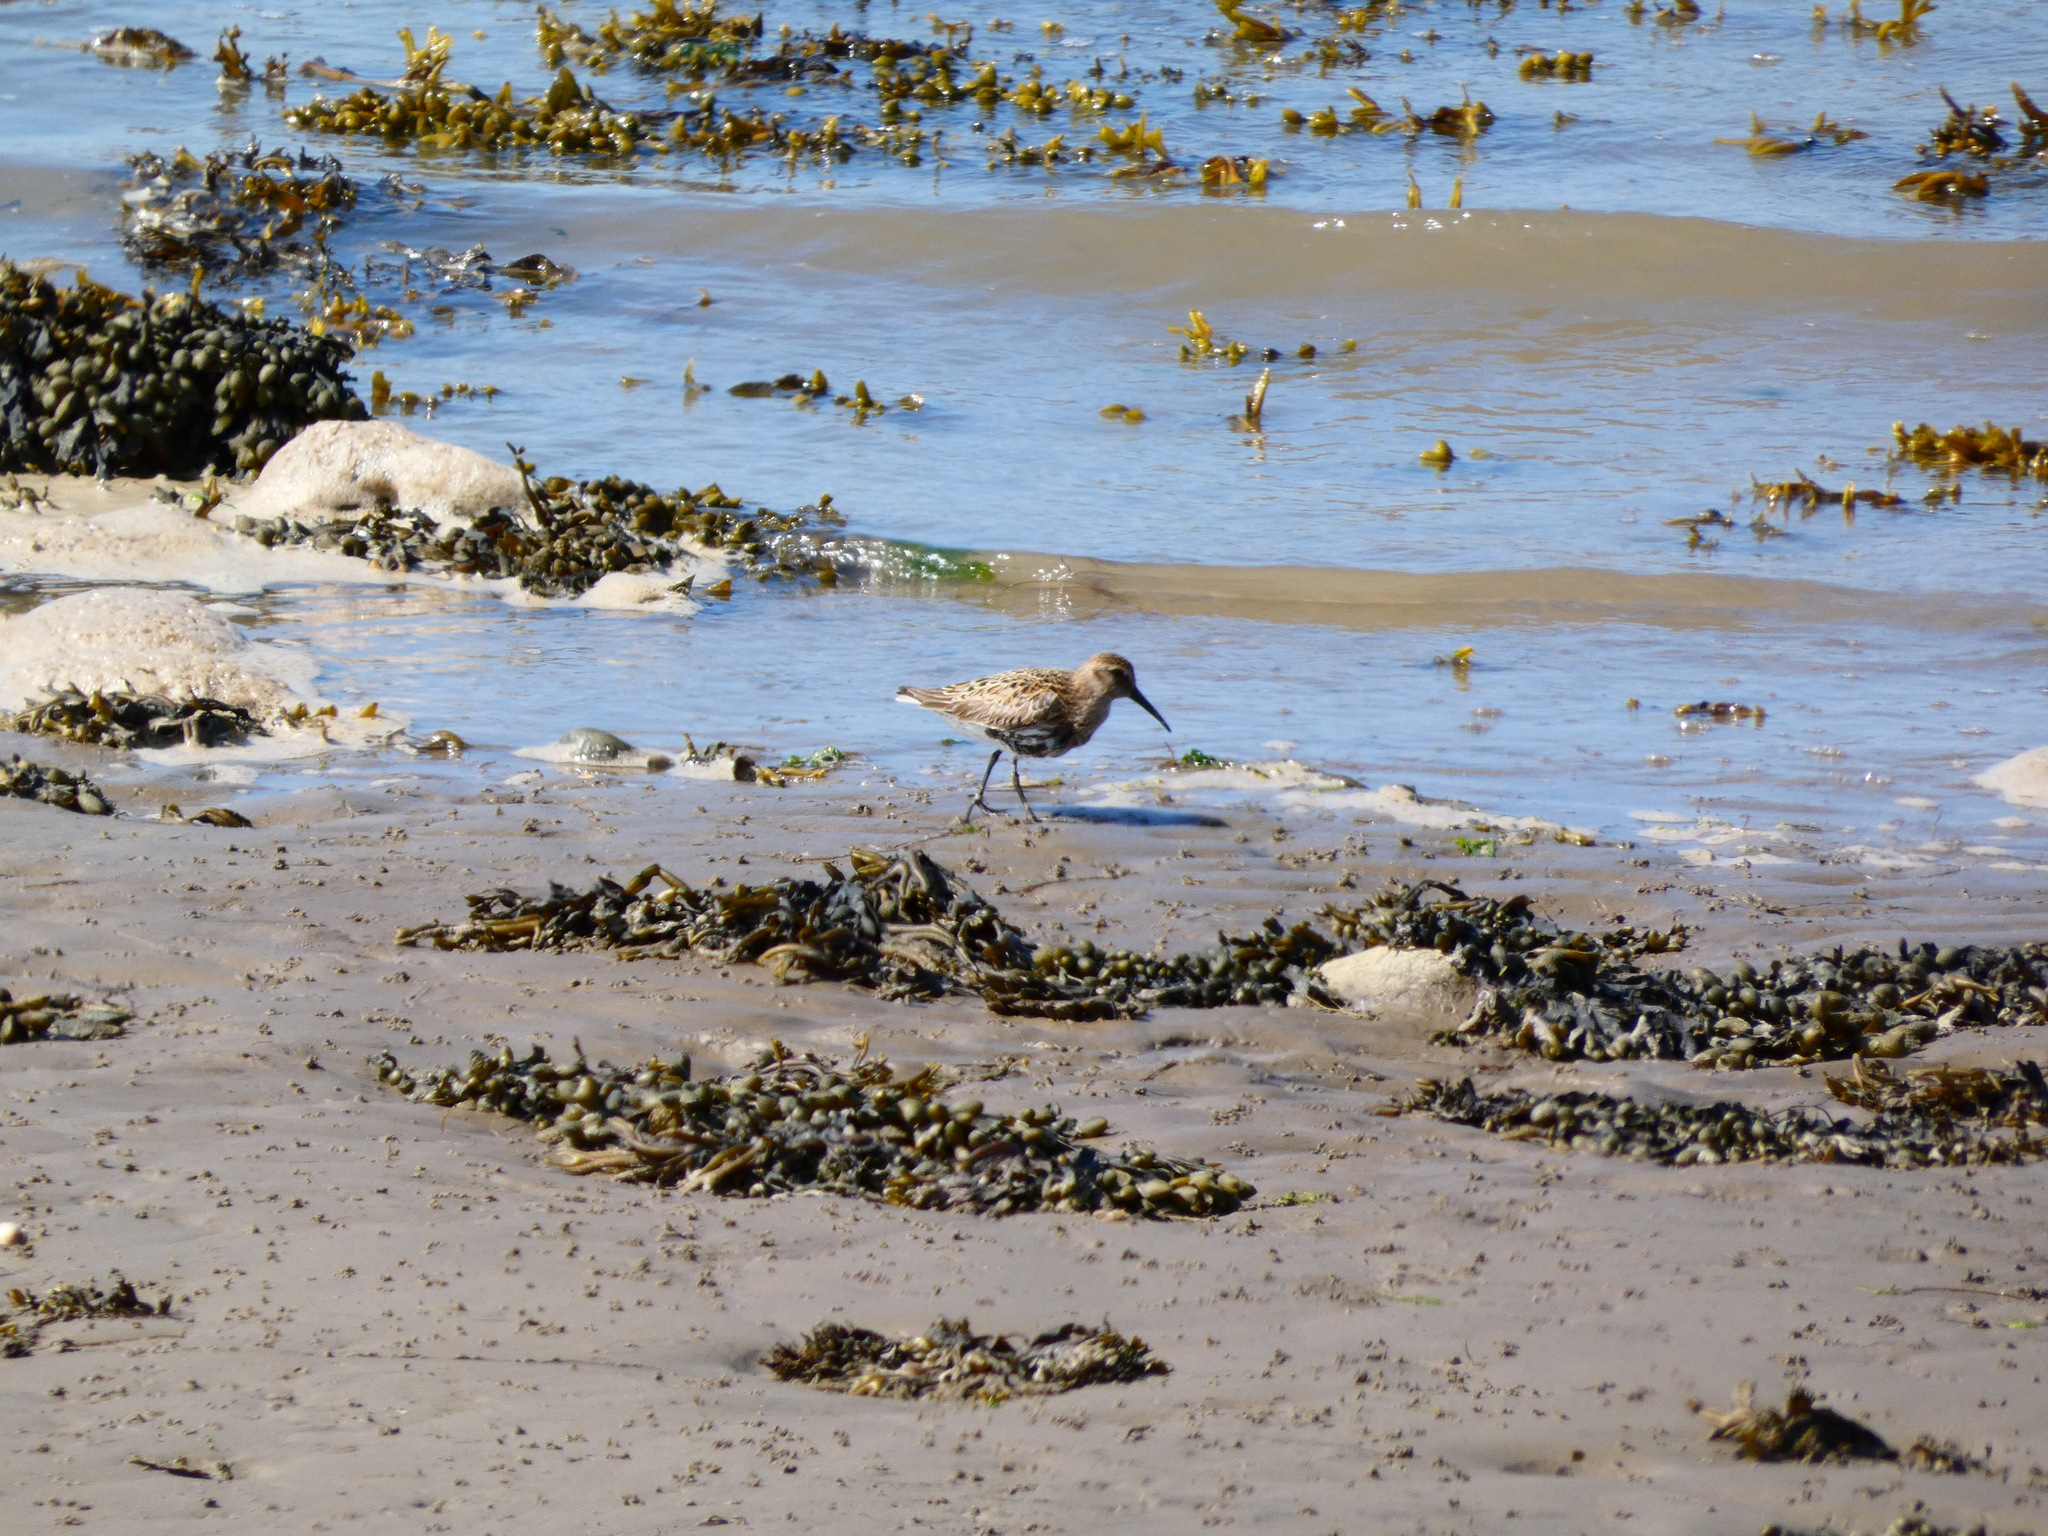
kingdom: Animalia
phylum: Chordata
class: Aves
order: Charadriiformes
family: Scolopacidae
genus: Calidris
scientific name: Calidris alpina
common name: Dunlin
